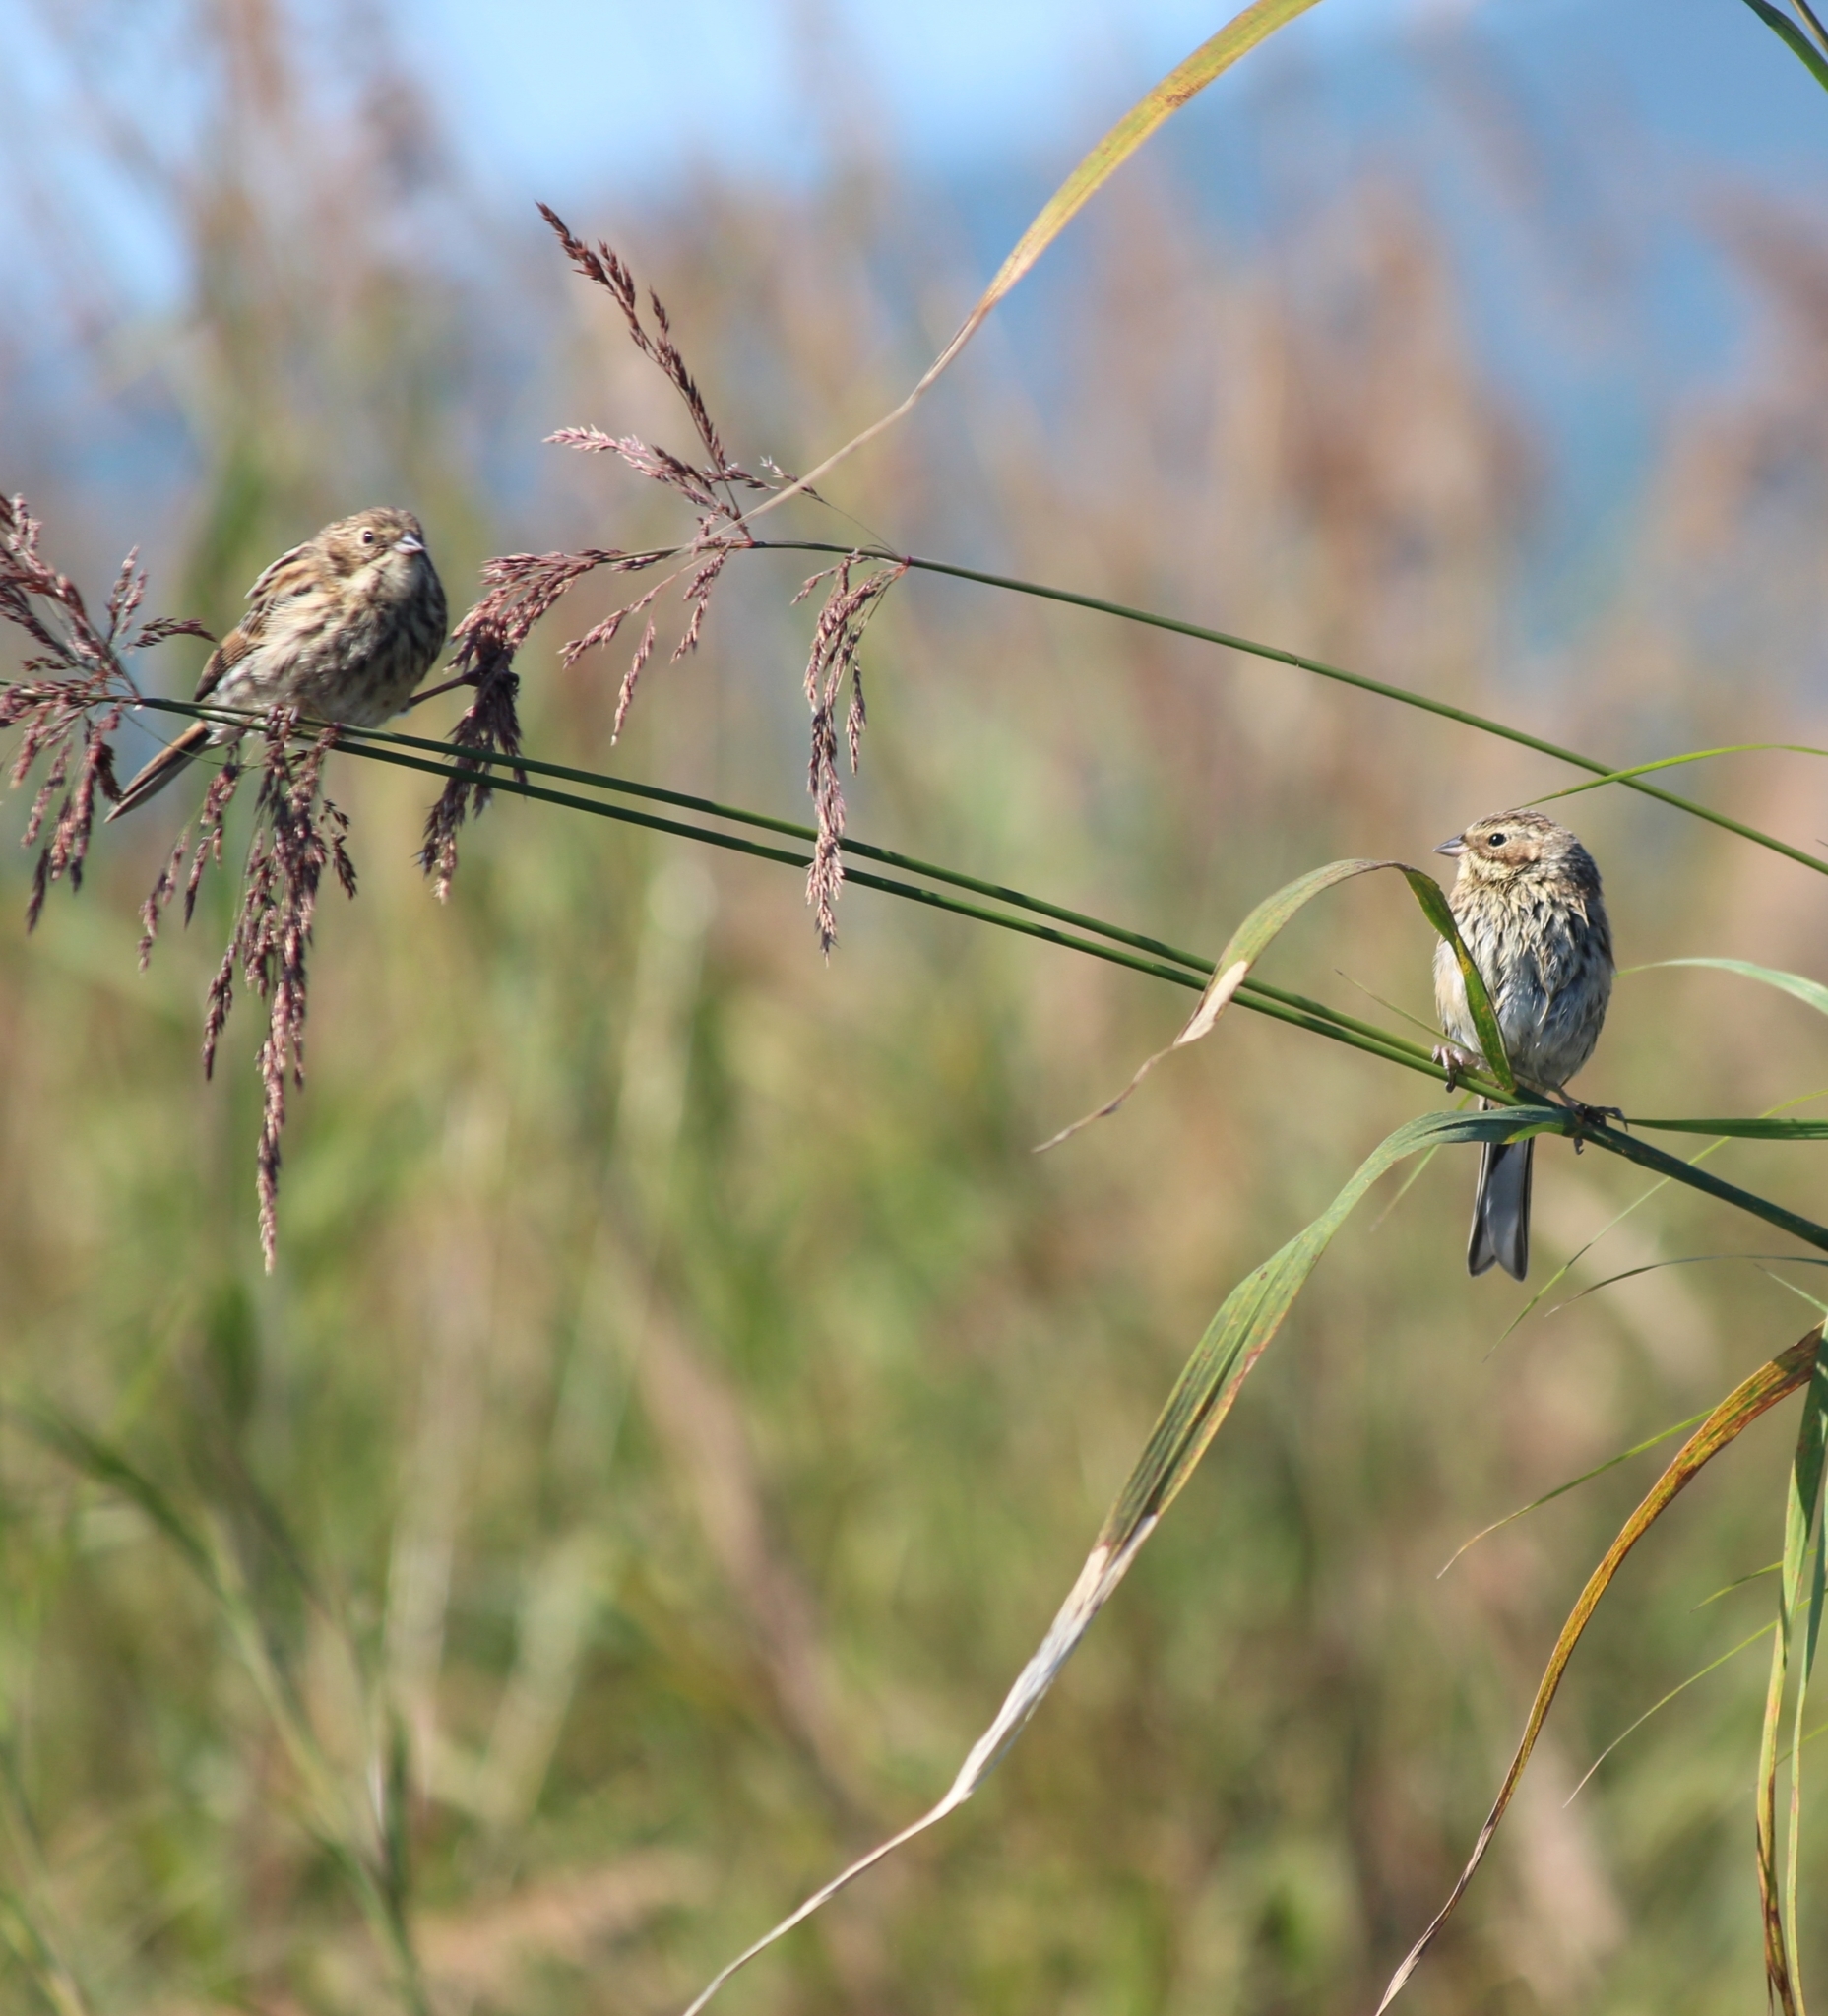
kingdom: Animalia
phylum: Chordata
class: Aves
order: Passeriformes
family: Emberizidae
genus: Emberiza
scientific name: Emberiza schoeniclus
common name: Reed bunting
